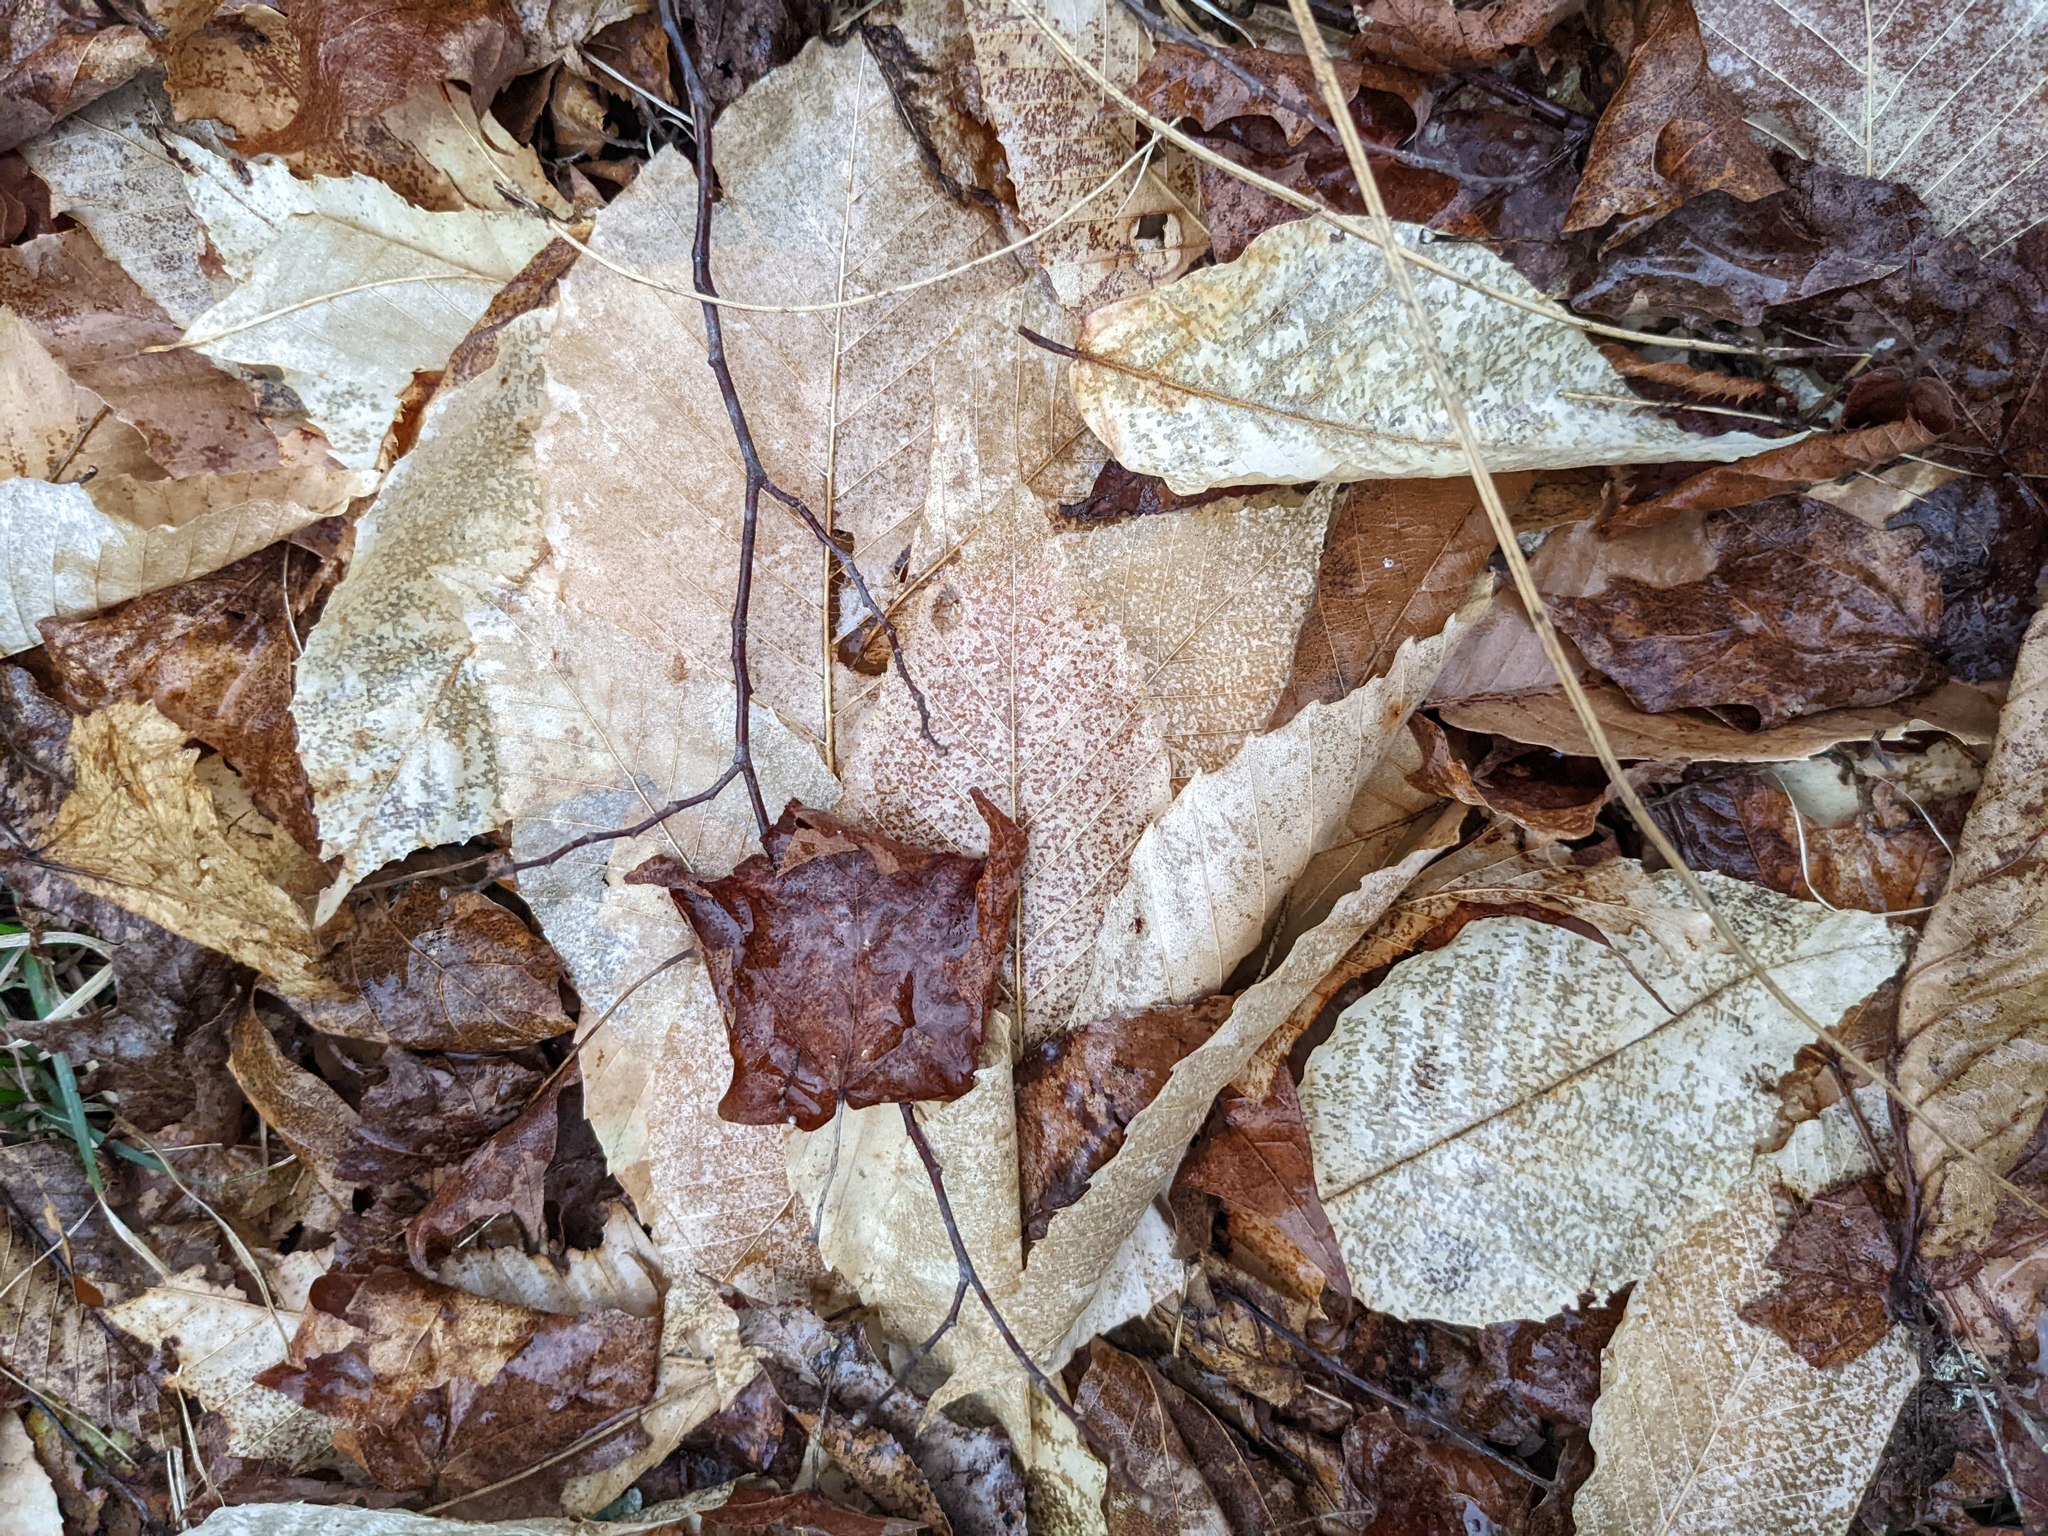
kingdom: Plantae
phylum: Tracheophyta
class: Magnoliopsida
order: Fagales
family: Fagaceae
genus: Fagus
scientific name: Fagus grandifolia
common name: American beech
